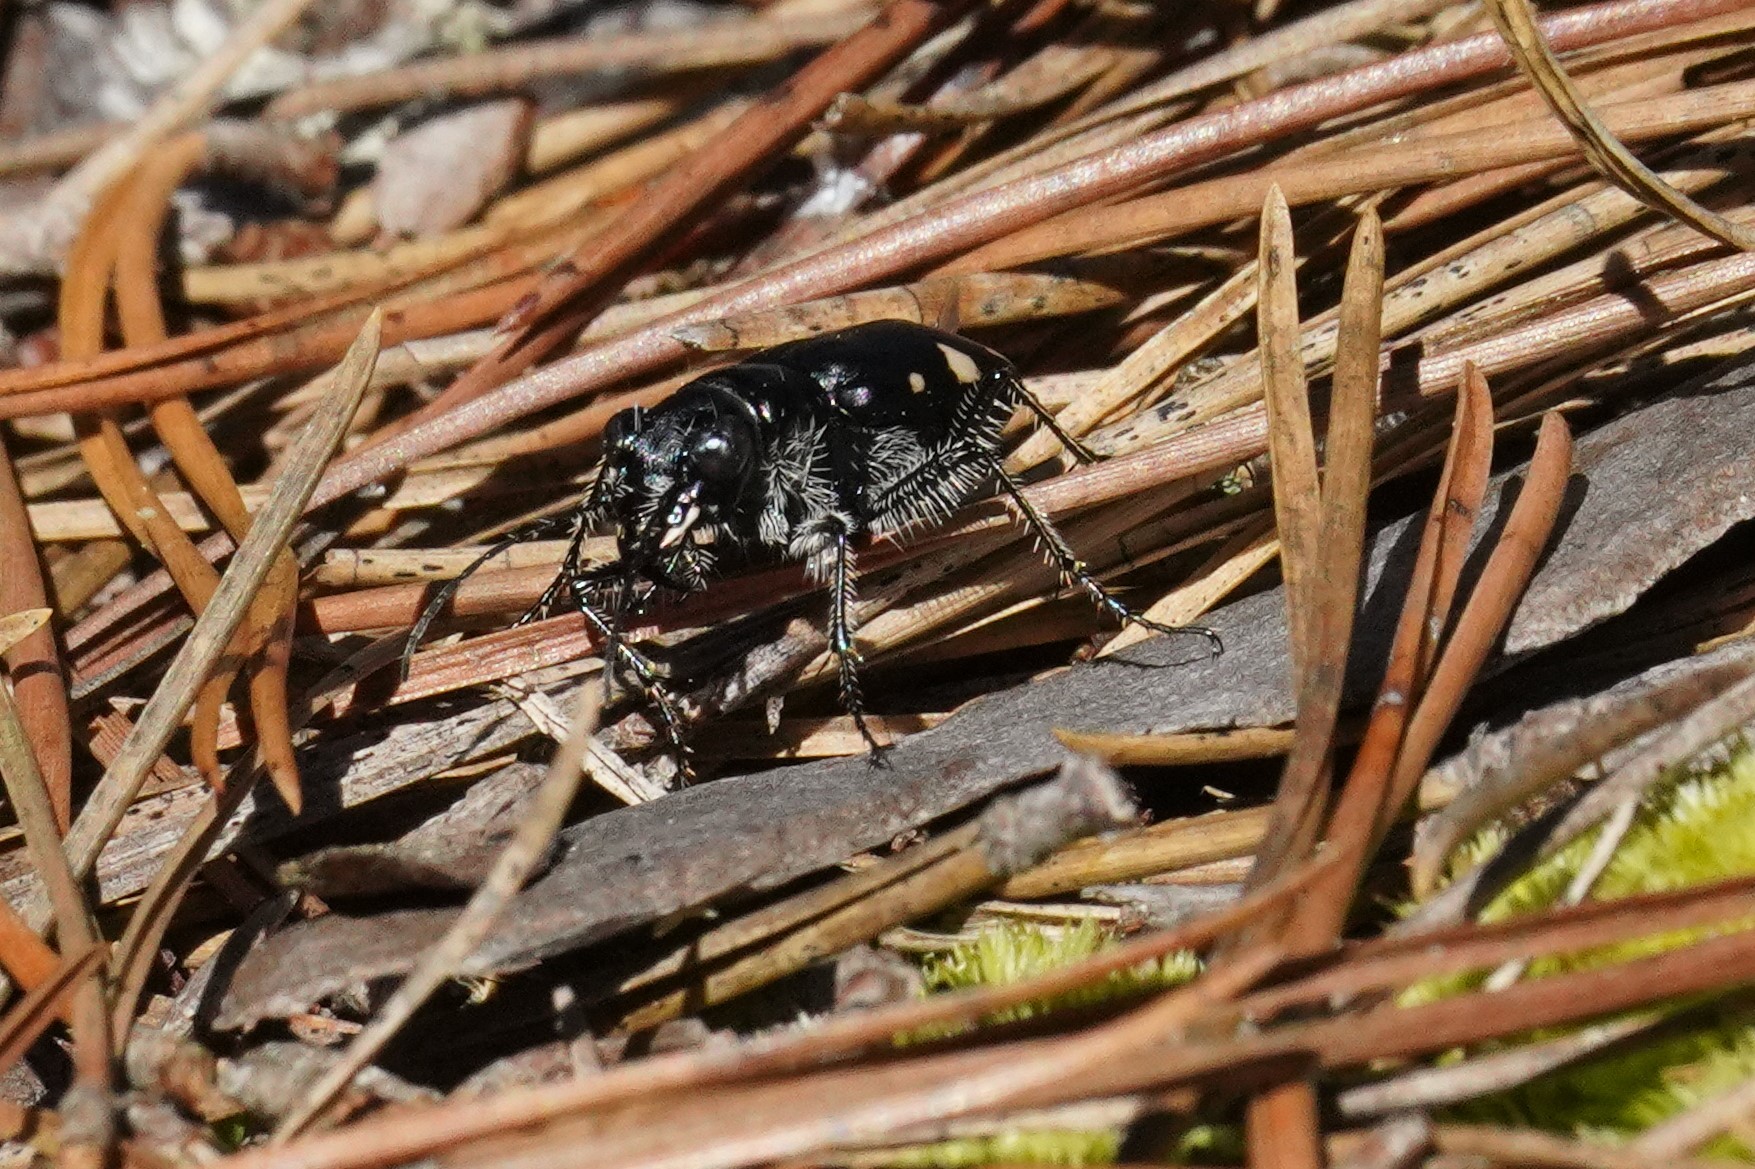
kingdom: Animalia
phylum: Arthropoda
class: Insecta
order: Coleoptera
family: Carabidae
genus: Cicindela
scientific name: Cicindela scutellaris
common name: Festive tiger beetle
